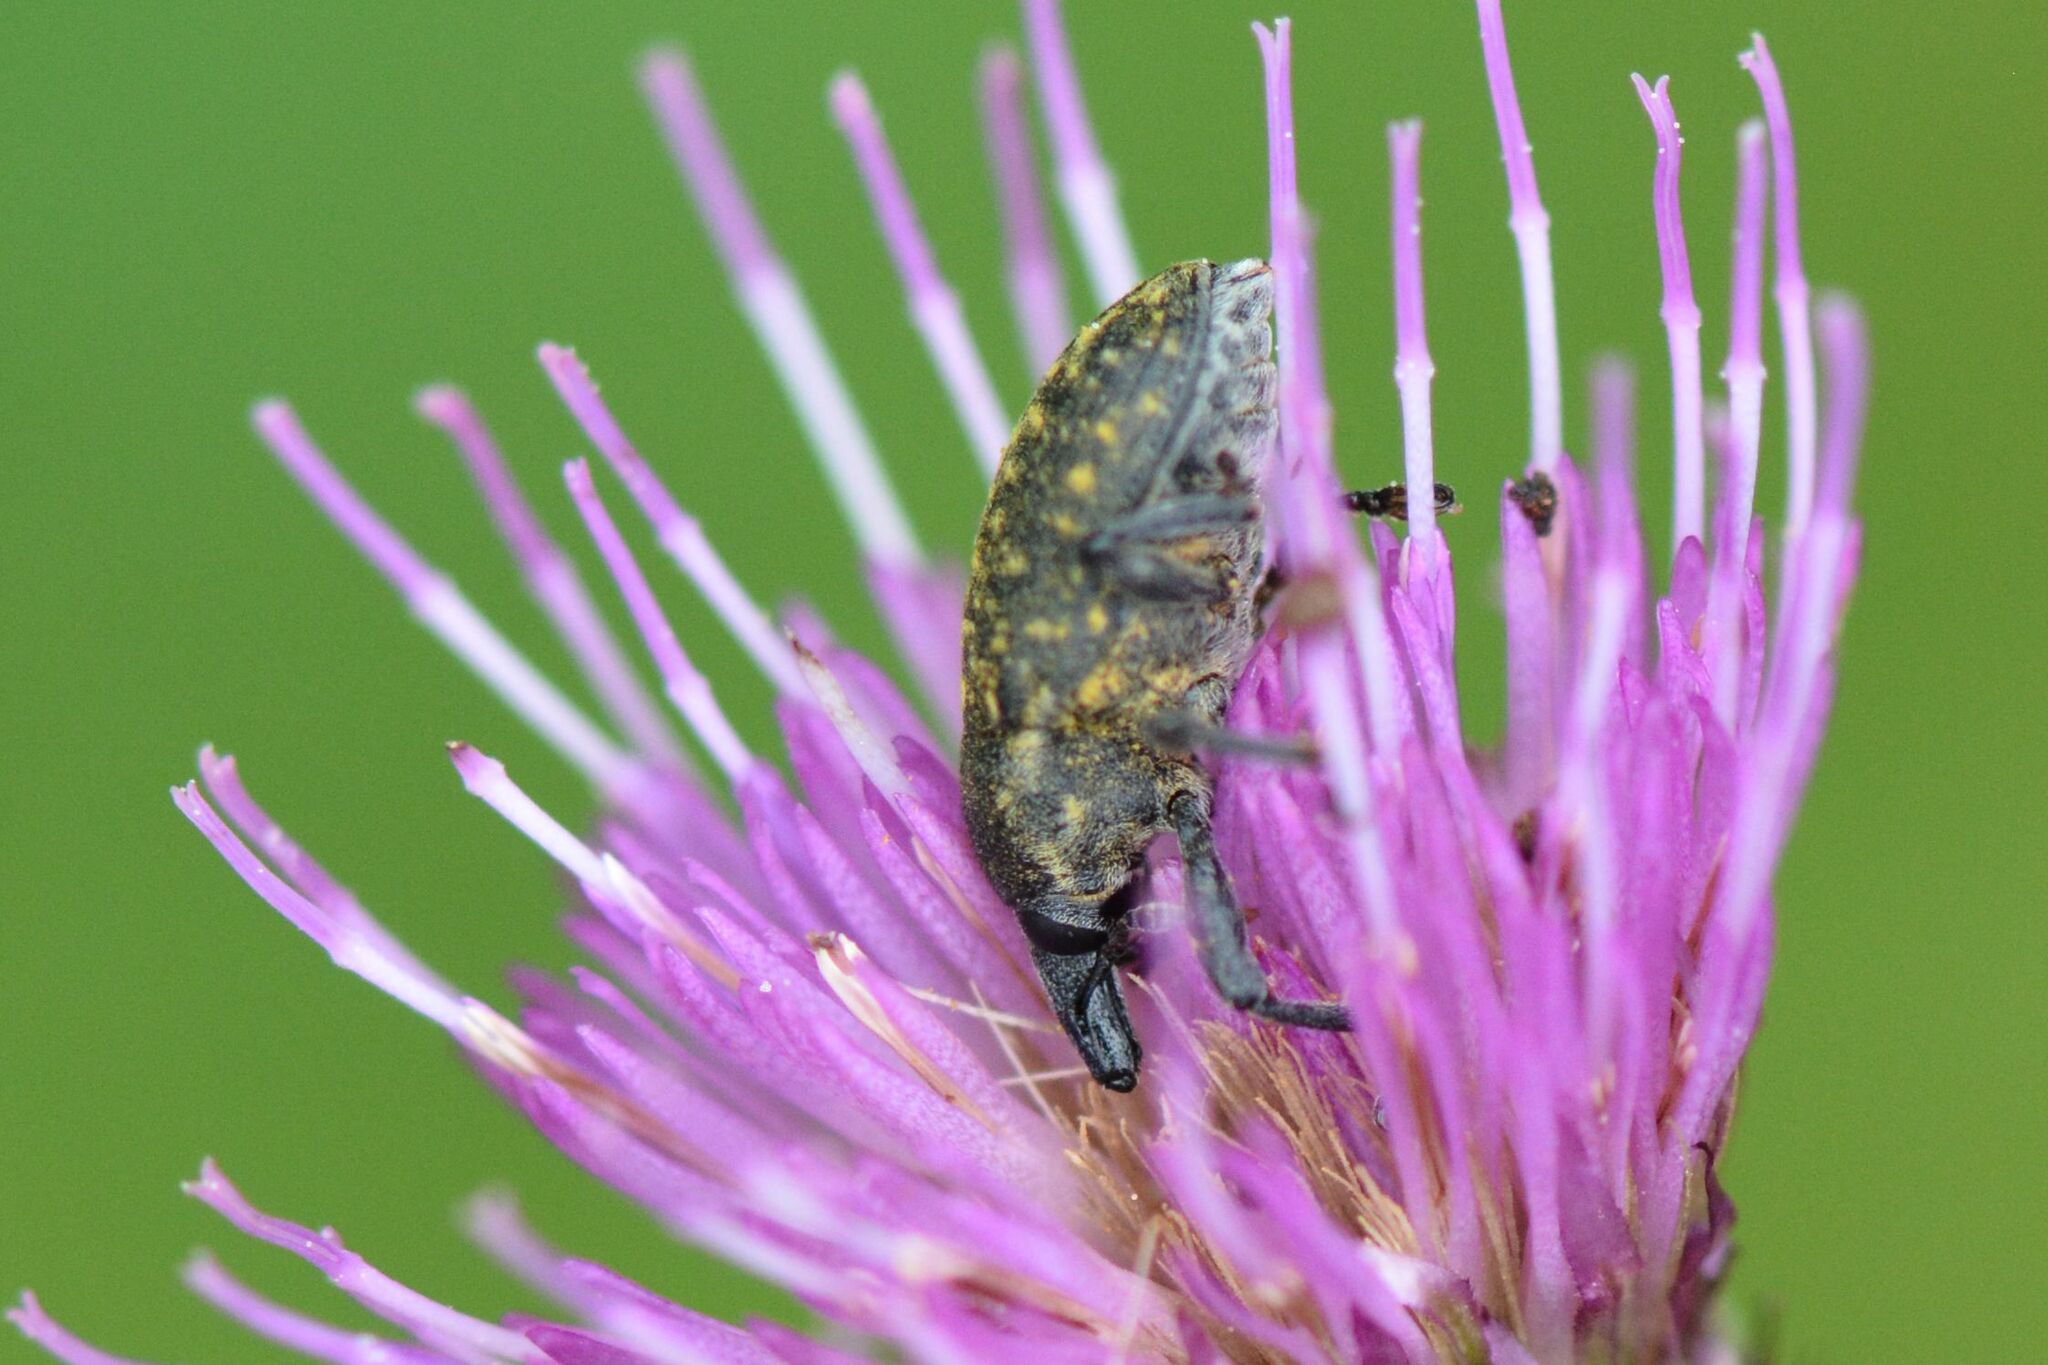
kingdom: Animalia
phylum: Arthropoda
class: Insecta
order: Coleoptera
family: Curculionidae
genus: Larinus
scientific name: Larinus turbinatus
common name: Weevil
